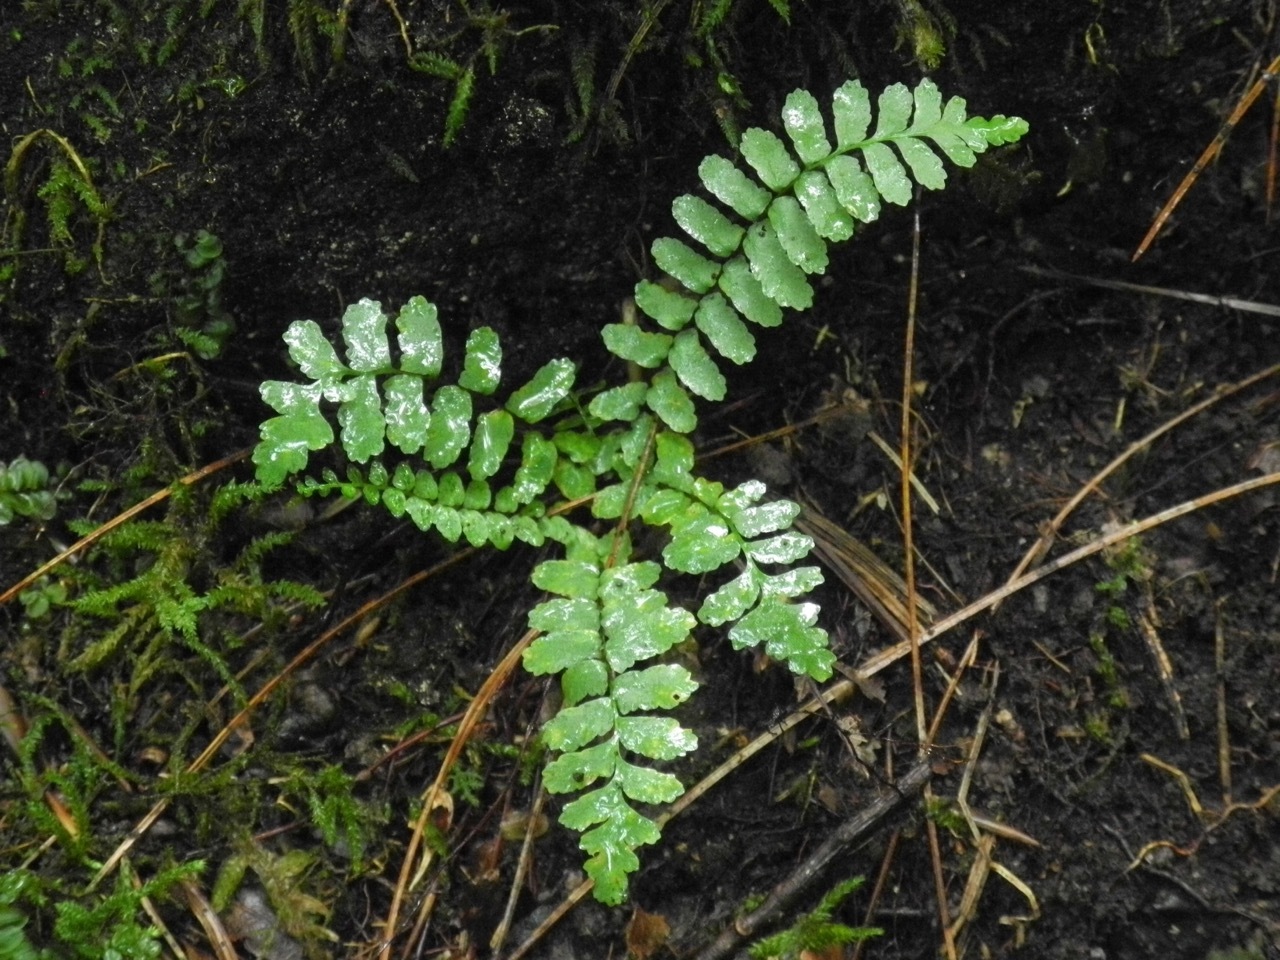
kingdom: Plantae
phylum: Tracheophyta
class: Polypodiopsida
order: Polypodiales
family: Aspleniaceae
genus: Asplenium
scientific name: Asplenium platyneuron
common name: Ebony spleenwort
